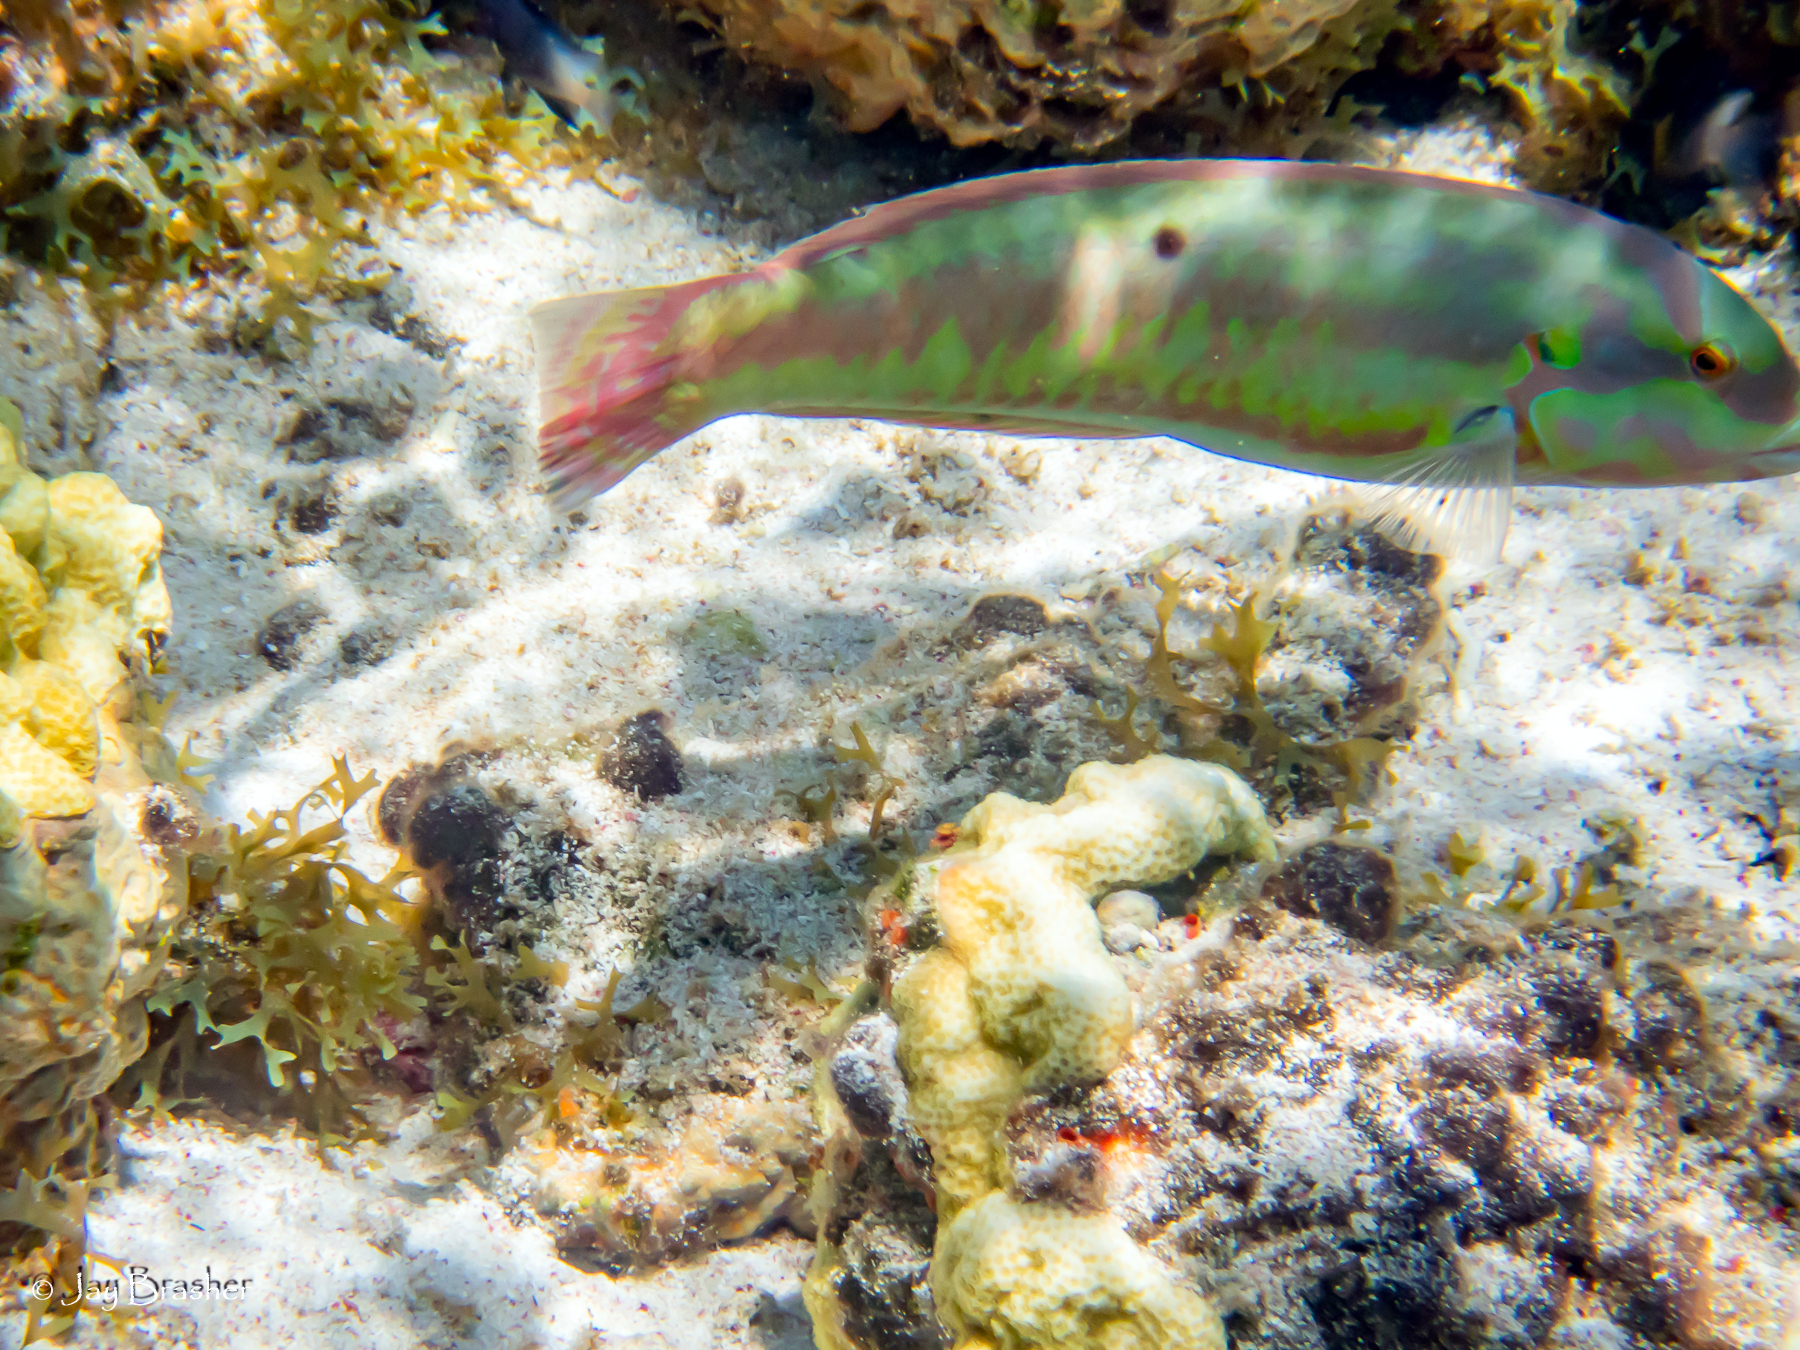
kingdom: Animalia
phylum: Chordata
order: Perciformes
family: Labridae
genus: Halichoeres
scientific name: Halichoeres bivittatus
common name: Slippery dick
